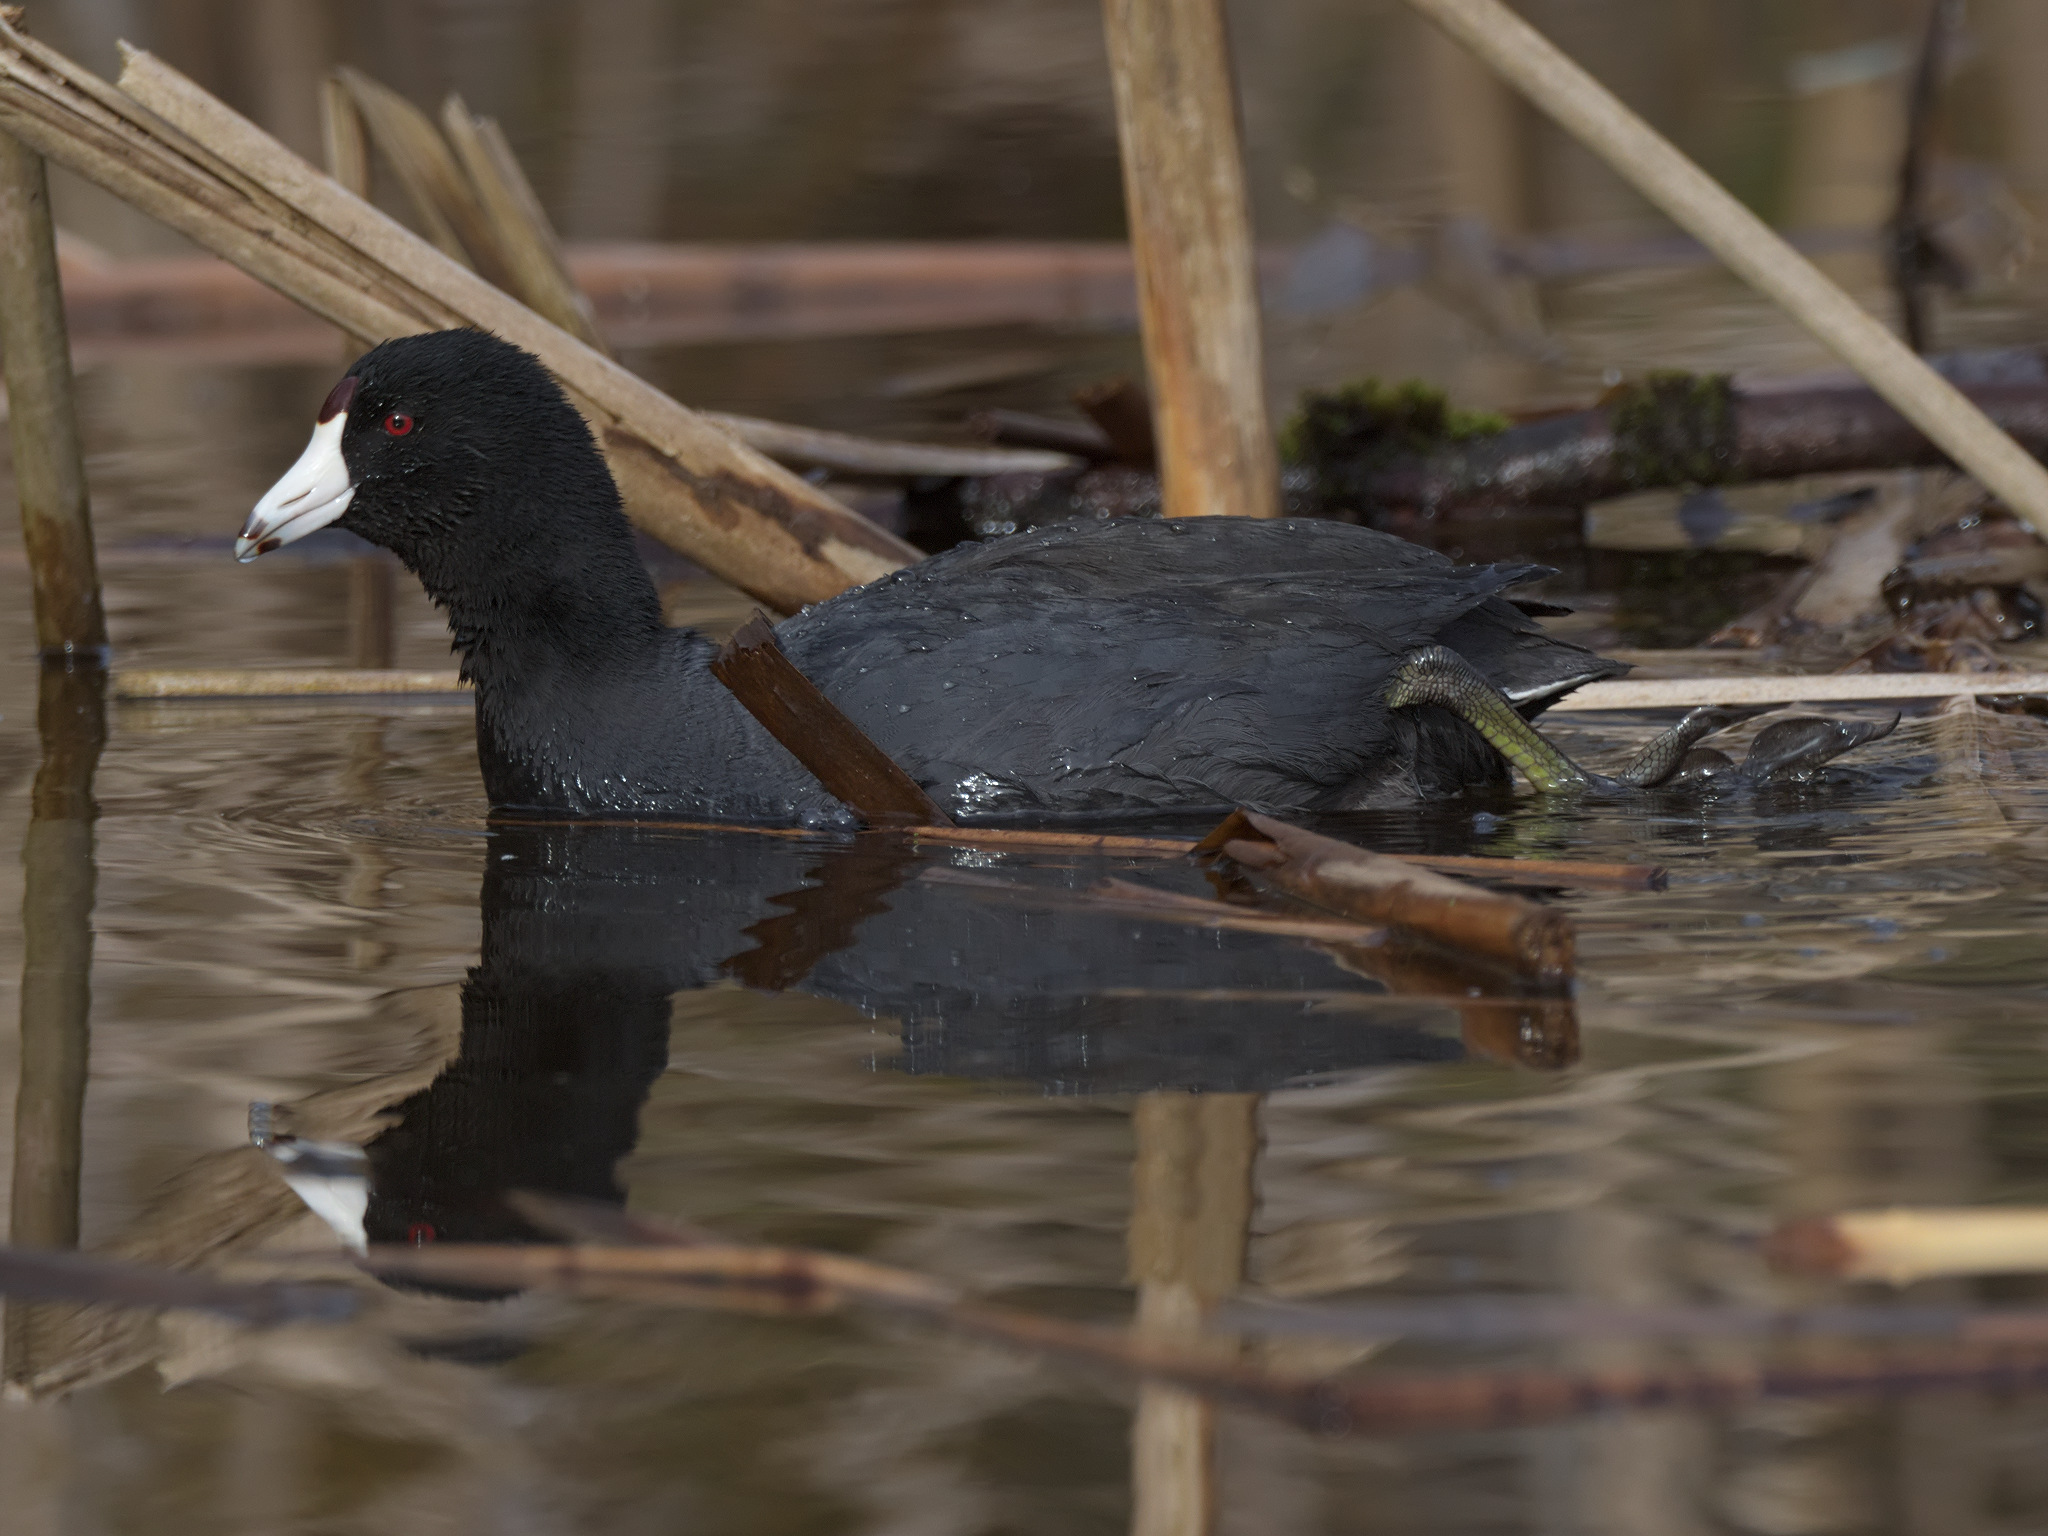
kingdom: Animalia
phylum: Chordata
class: Aves
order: Gruiformes
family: Rallidae
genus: Fulica
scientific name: Fulica americana
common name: American coot
